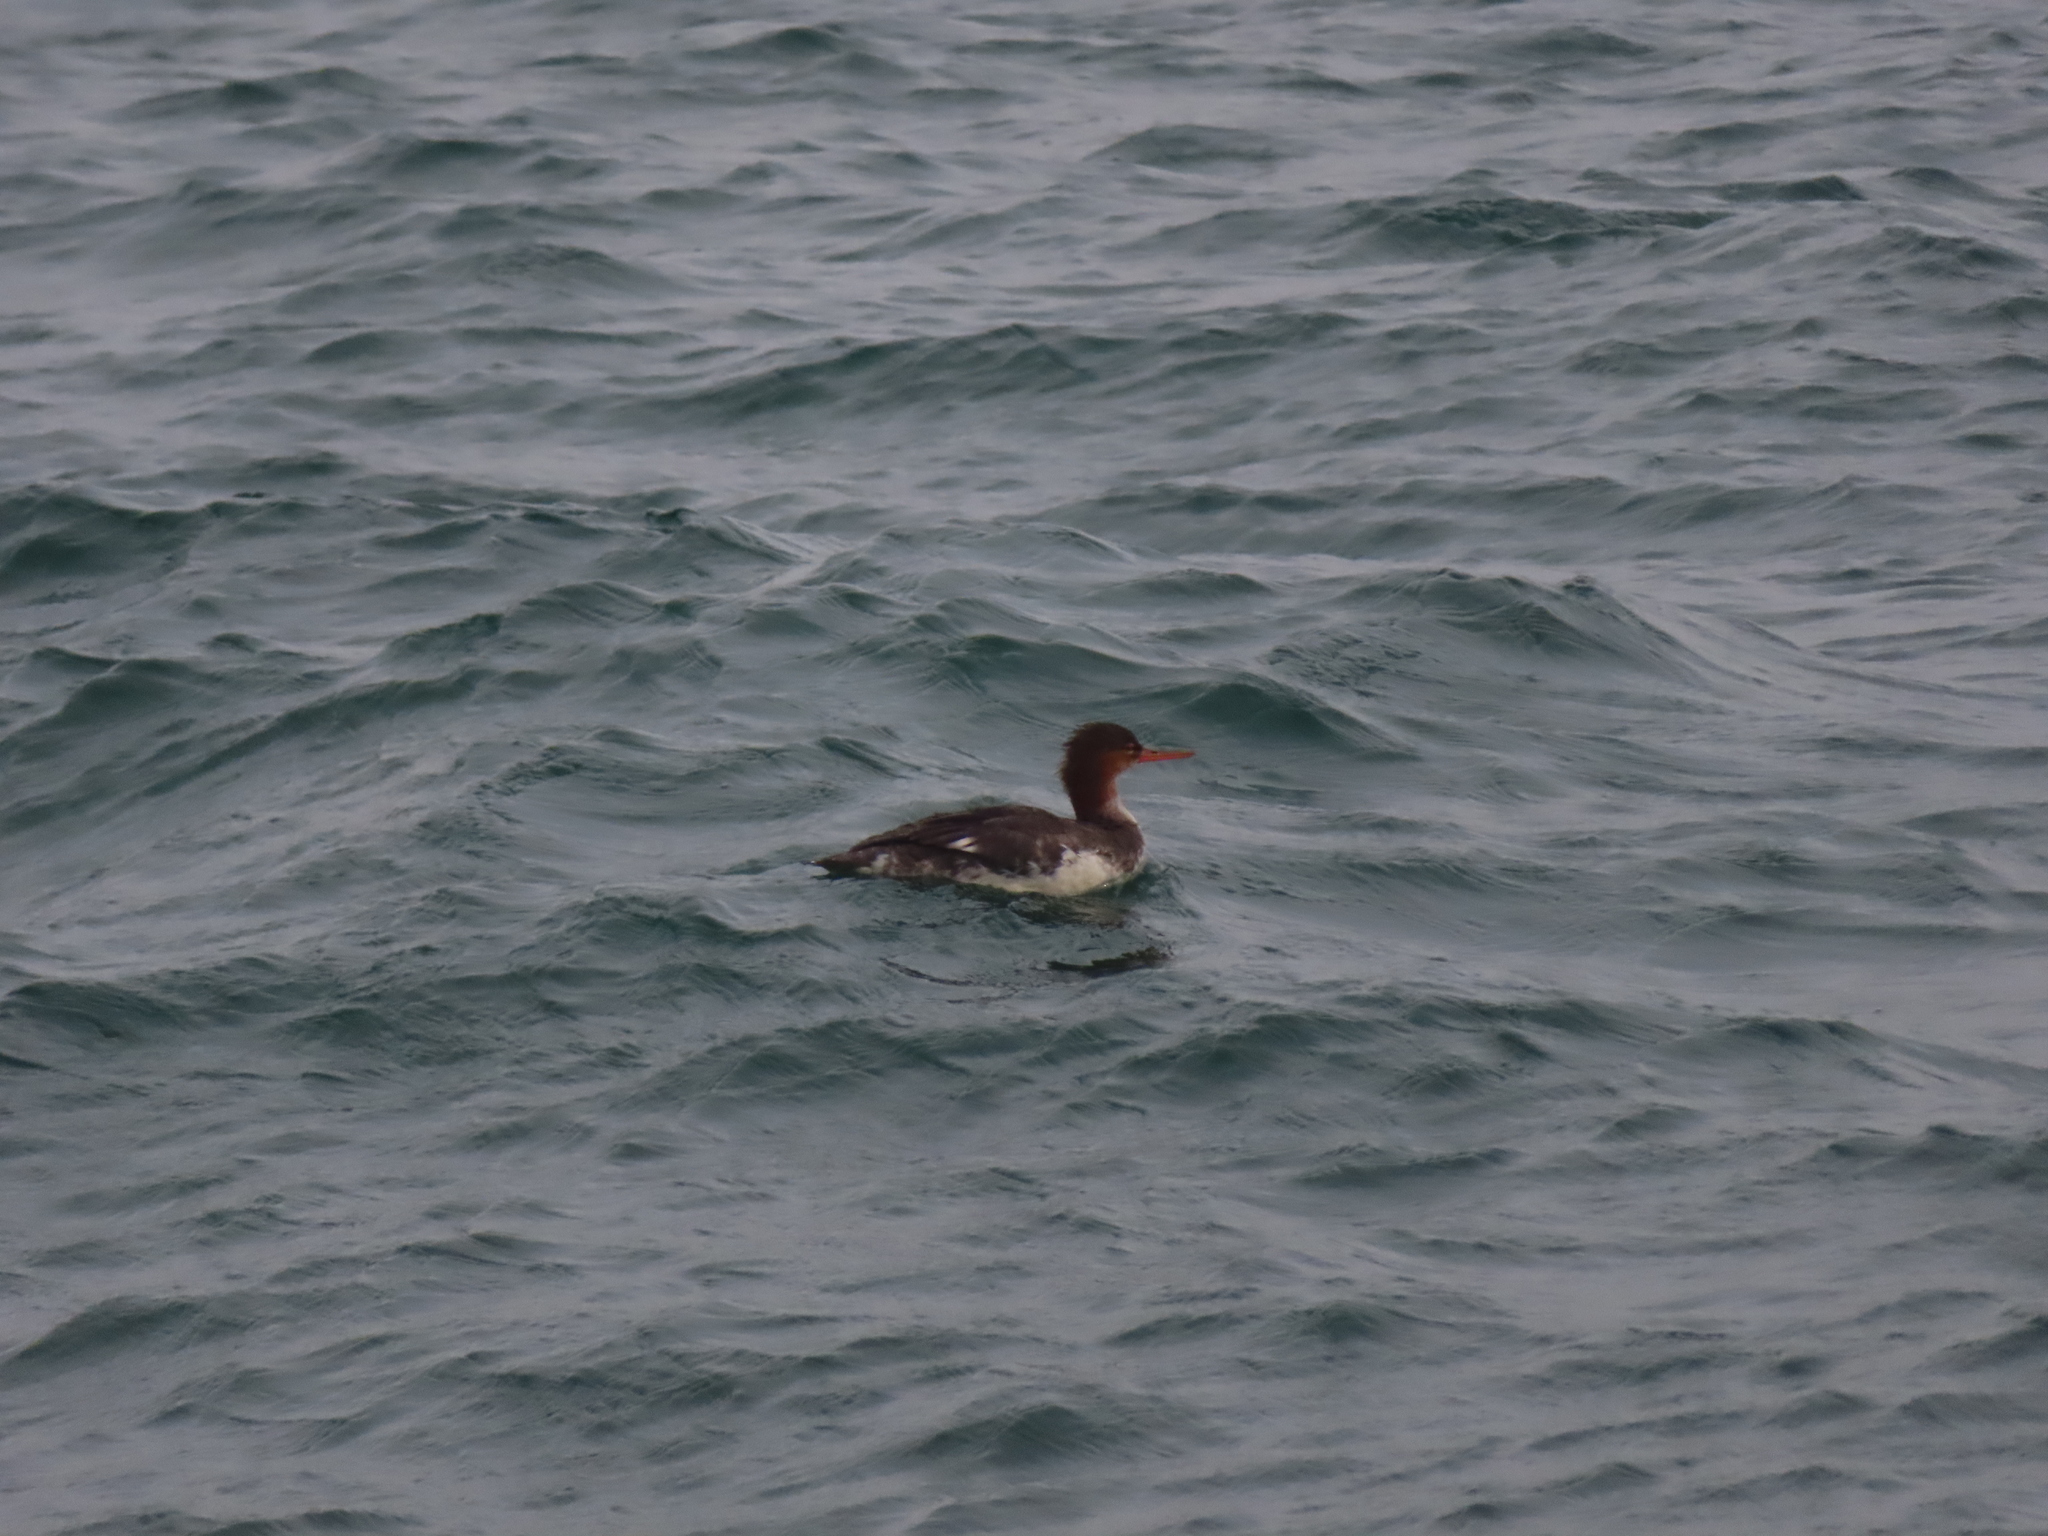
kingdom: Animalia
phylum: Chordata
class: Aves
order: Anseriformes
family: Anatidae
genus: Mergus
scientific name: Mergus serrator
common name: Red-breasted merganser
